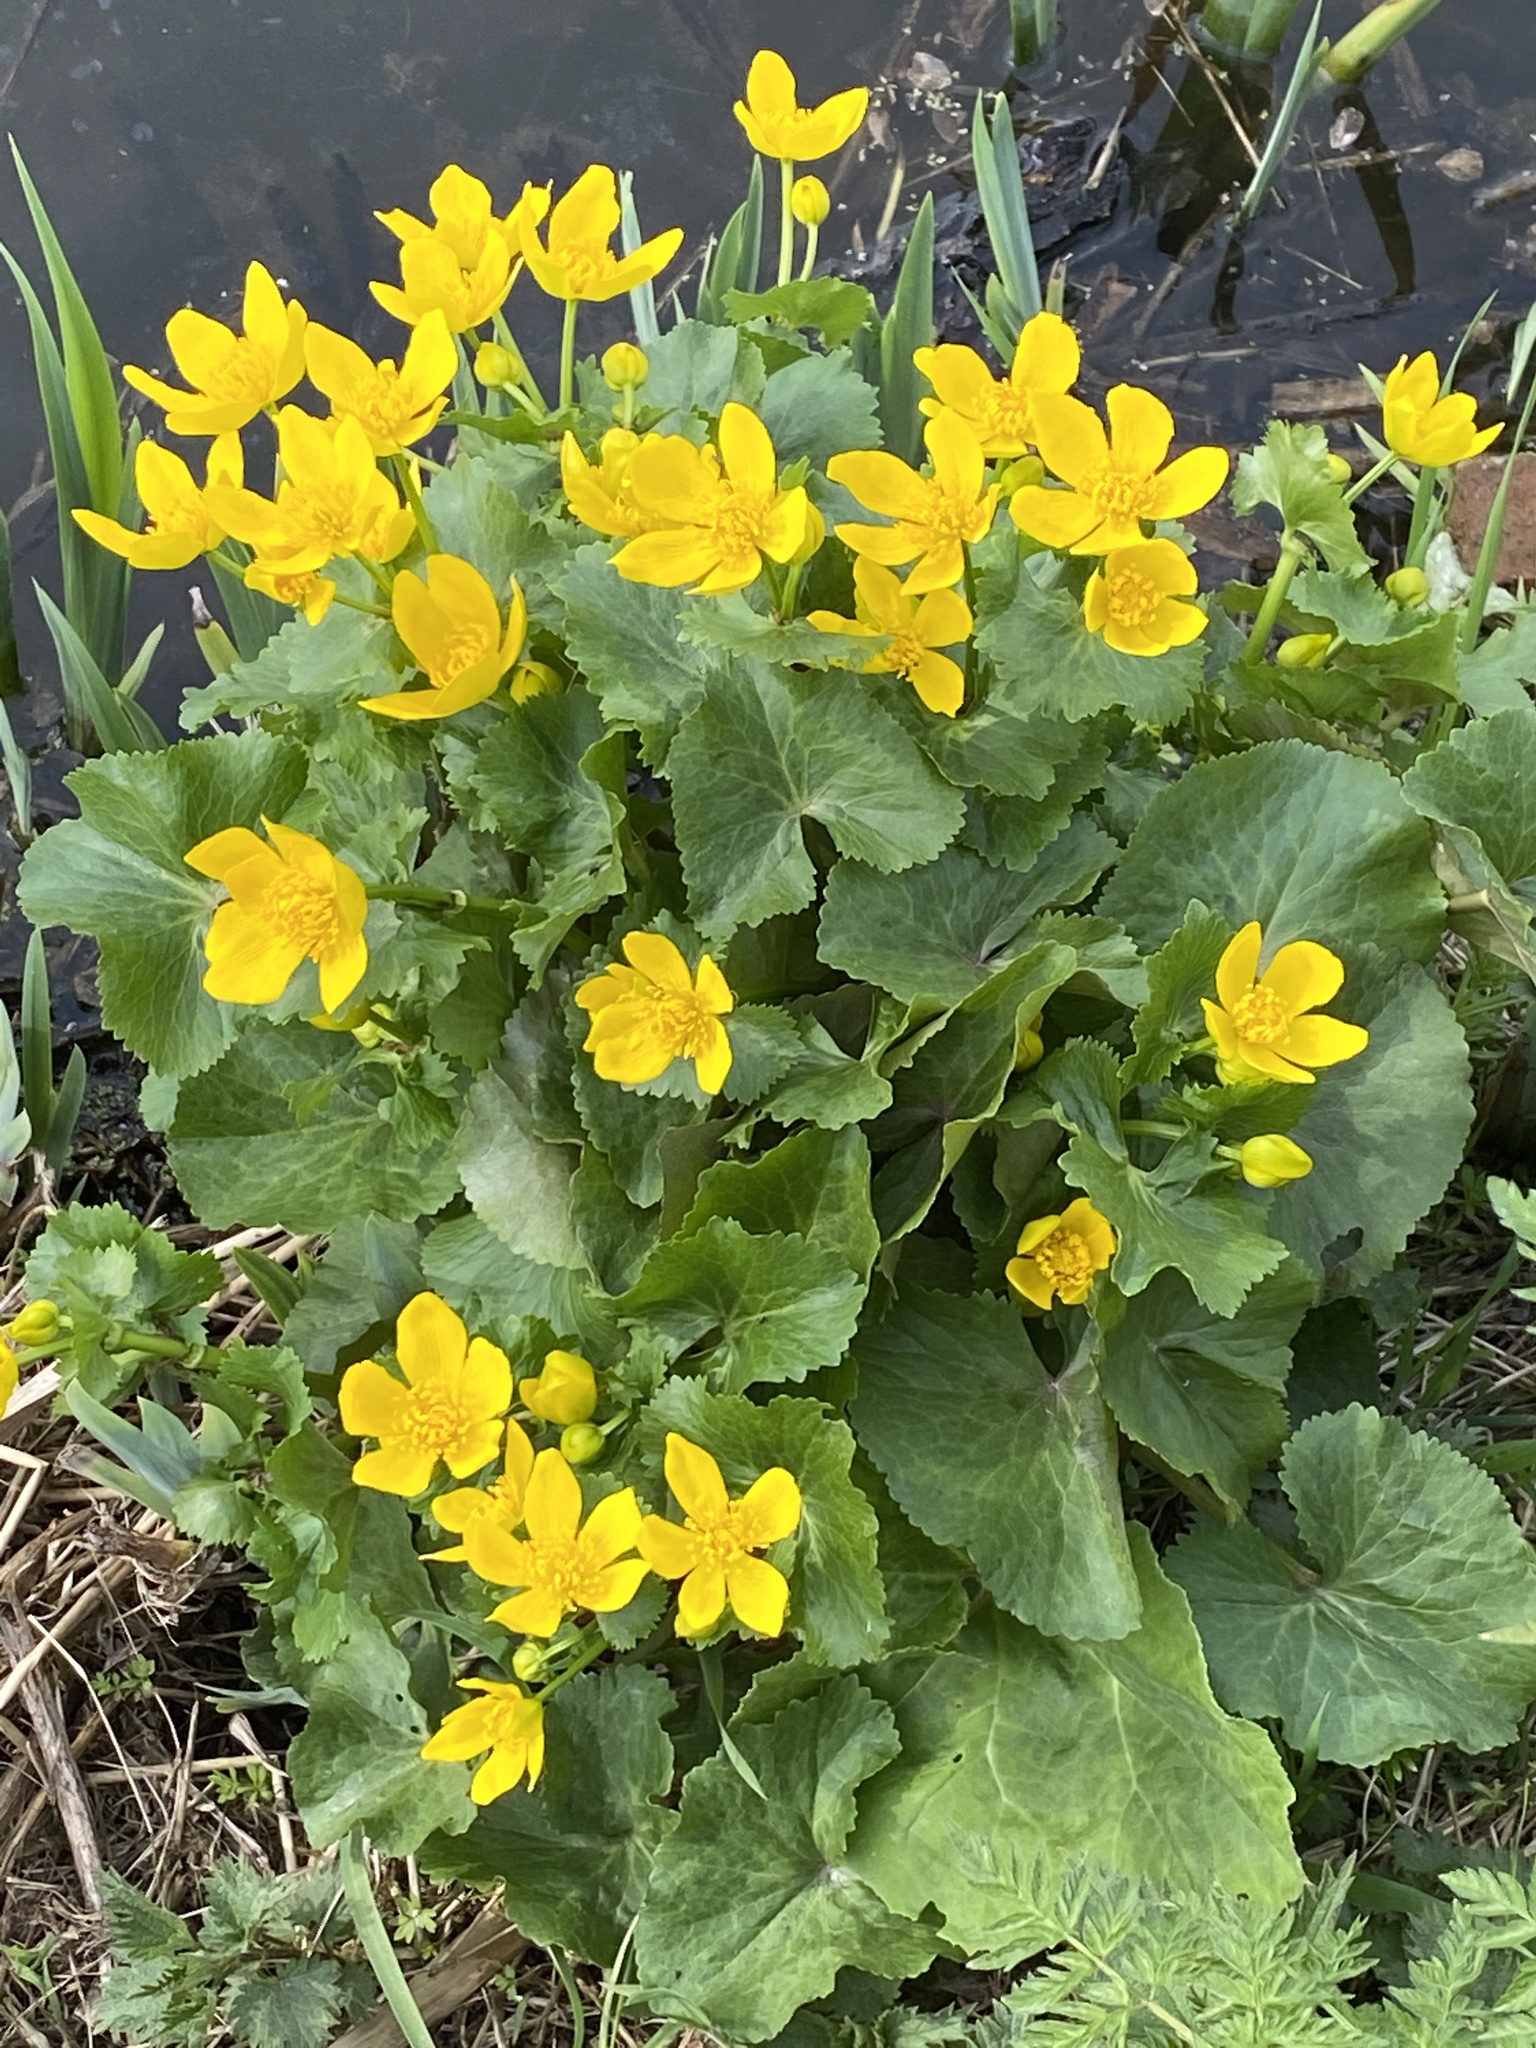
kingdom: Plantae
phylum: Tracheophyta
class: Magnoliopsida
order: Ranunculales
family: Ranunculaceae
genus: Caltha
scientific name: Caltha palustris
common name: Marsh marigold
